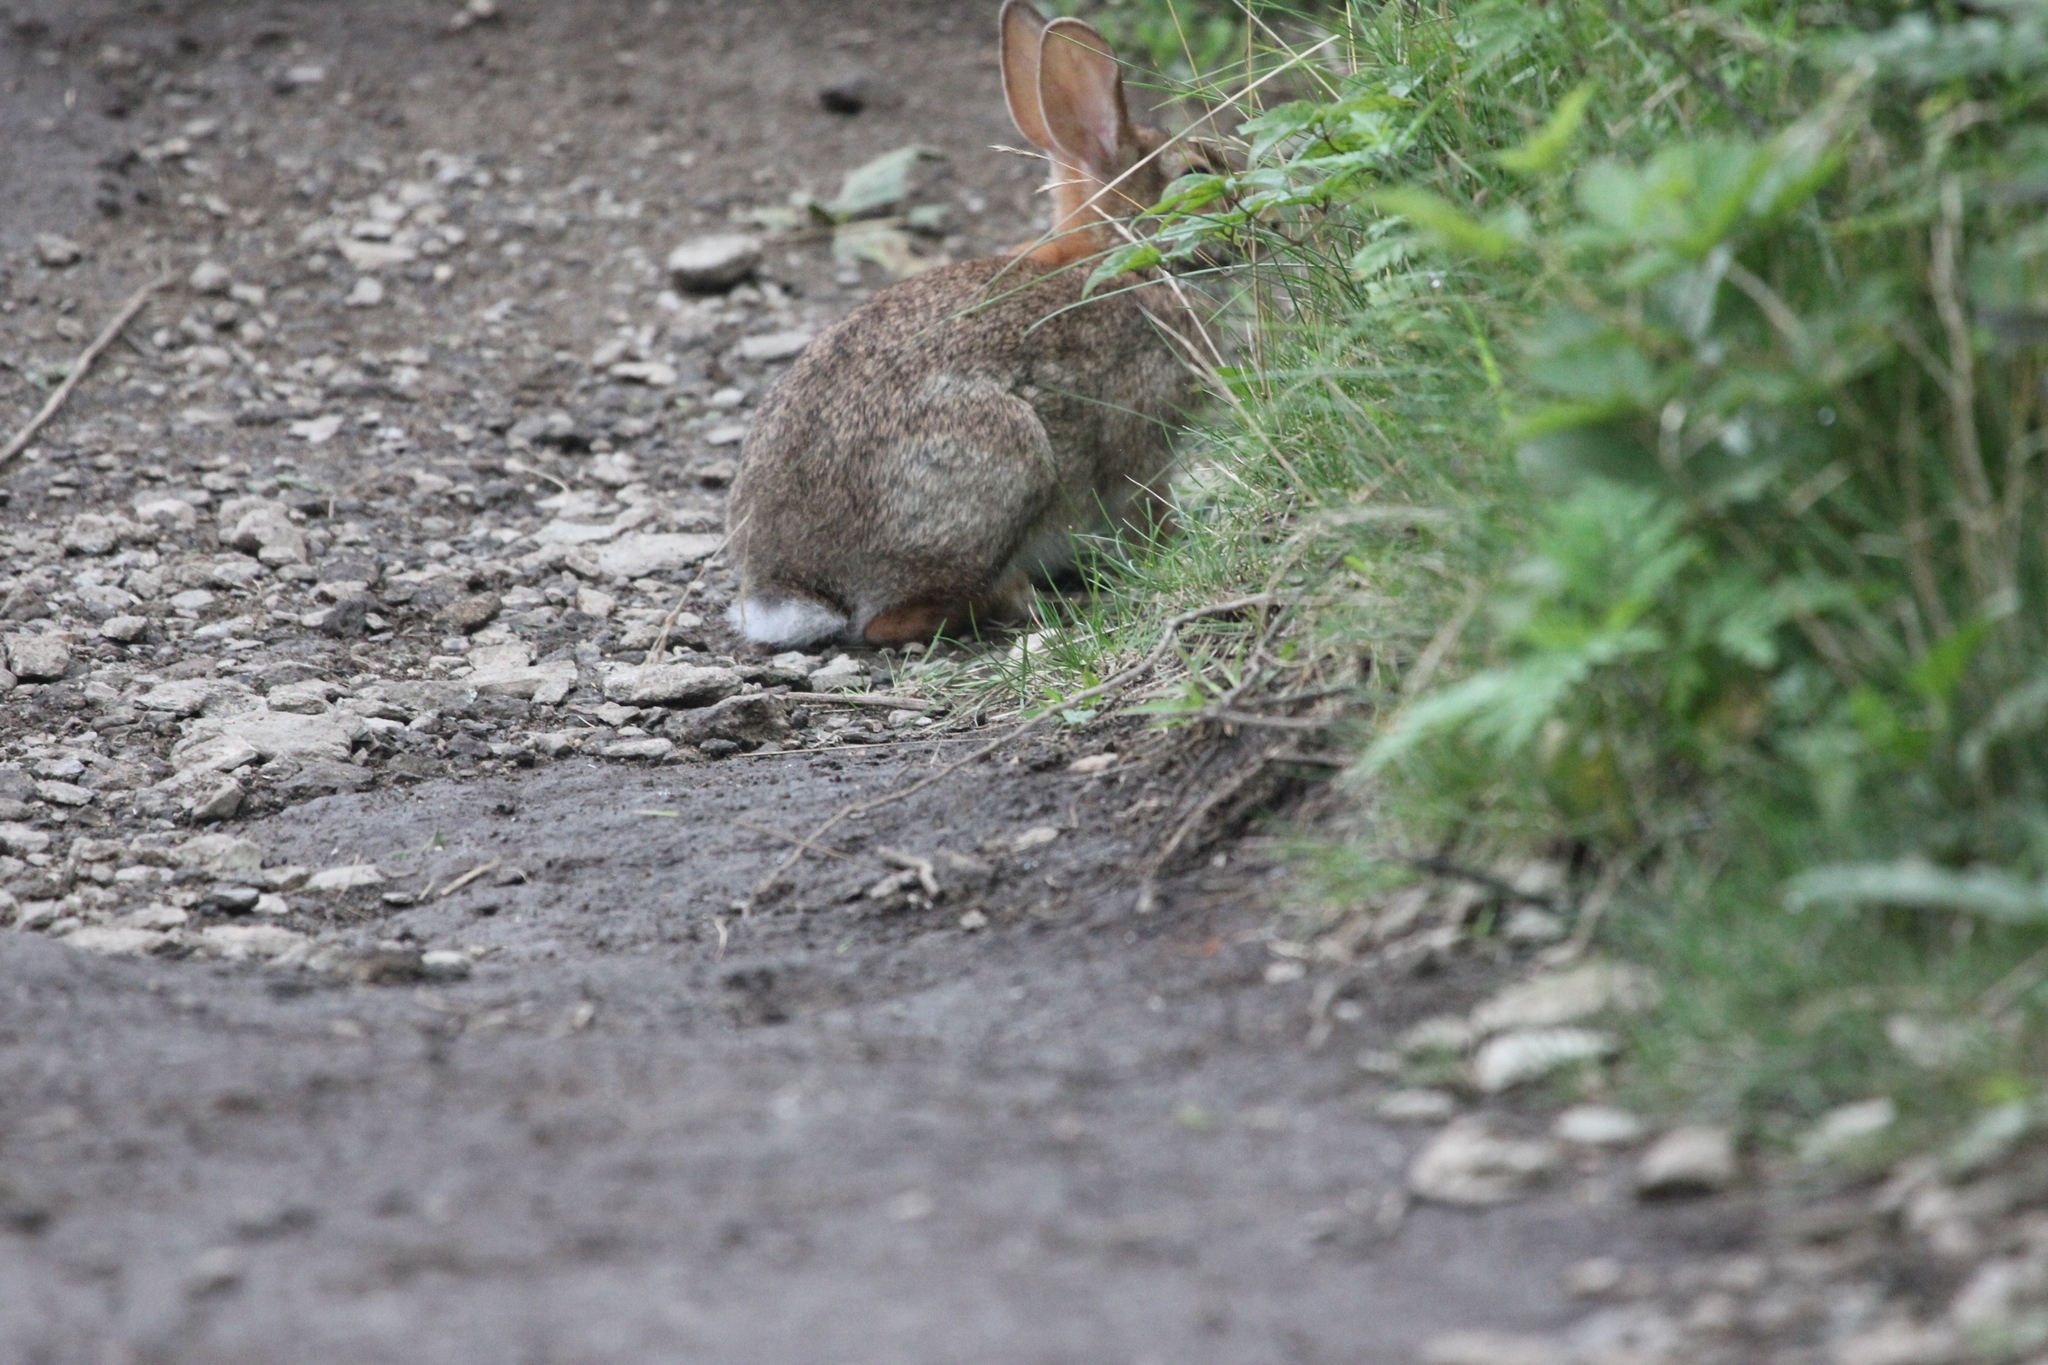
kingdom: Animalia
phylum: Chordata
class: Mammalia
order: Lagomorpha
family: Leporidae
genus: Sylvilagus
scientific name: Sylvilagus floridanus
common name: Eastern cottontail
